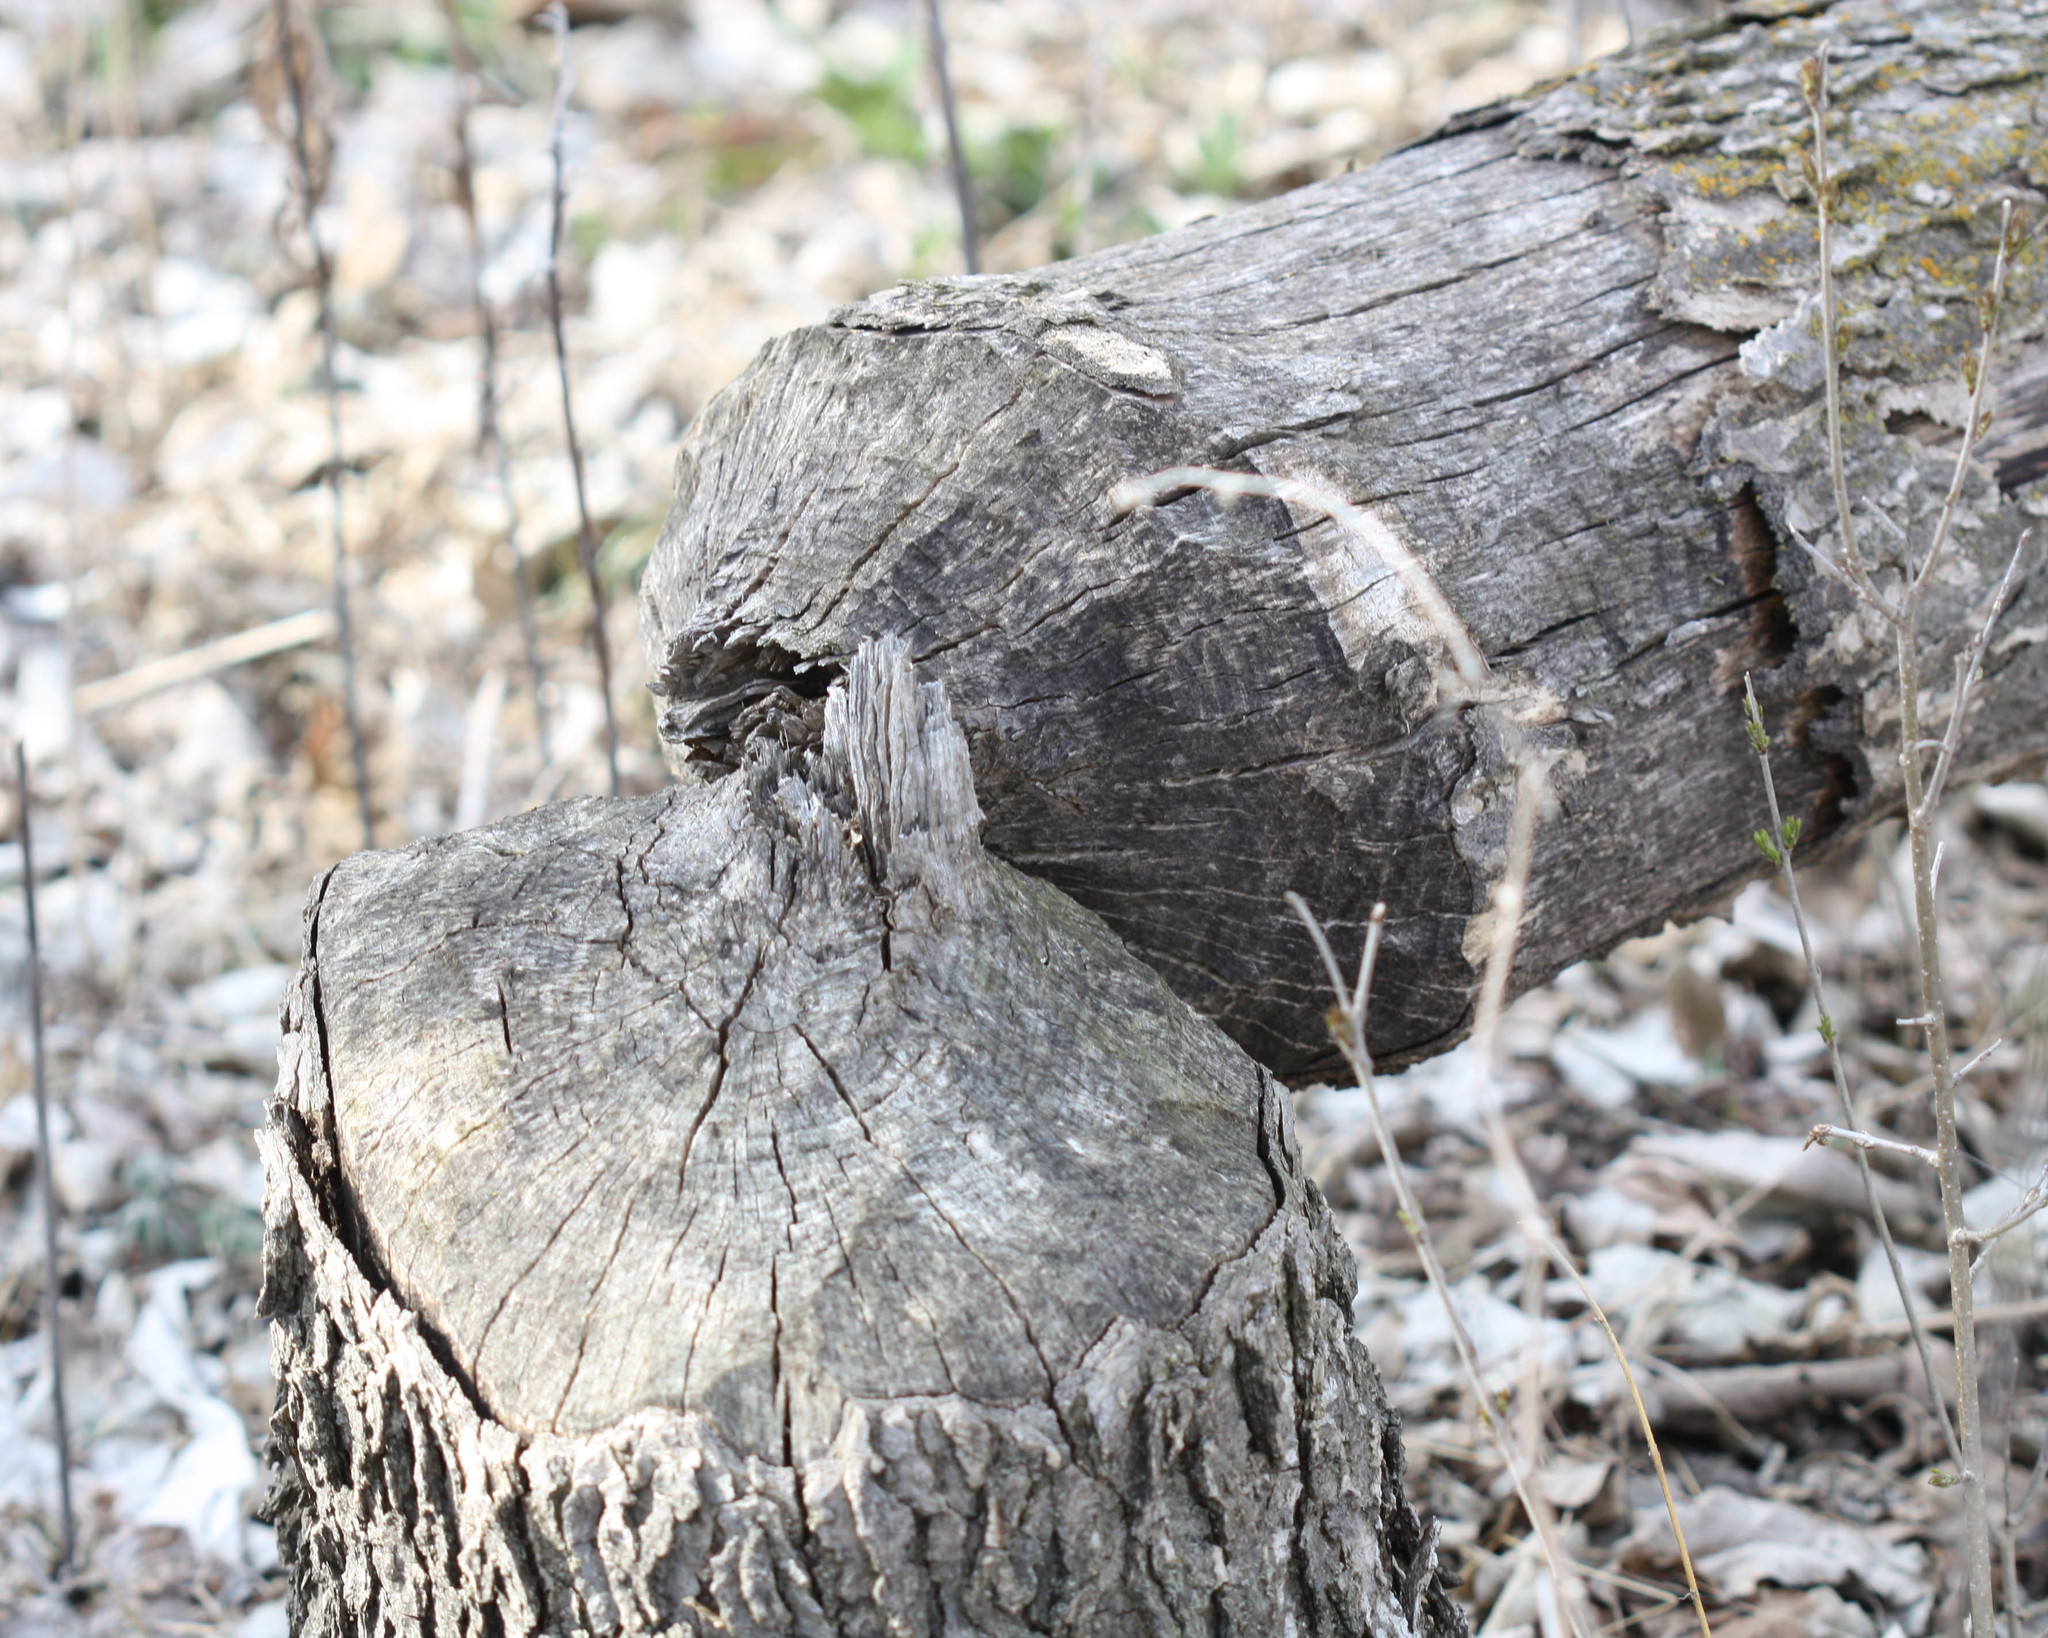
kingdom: Animalia
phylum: Chordata
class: Mammalia
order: Rodentia
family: Castoridae
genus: Castor
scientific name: Castor canadensis
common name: American beaver
